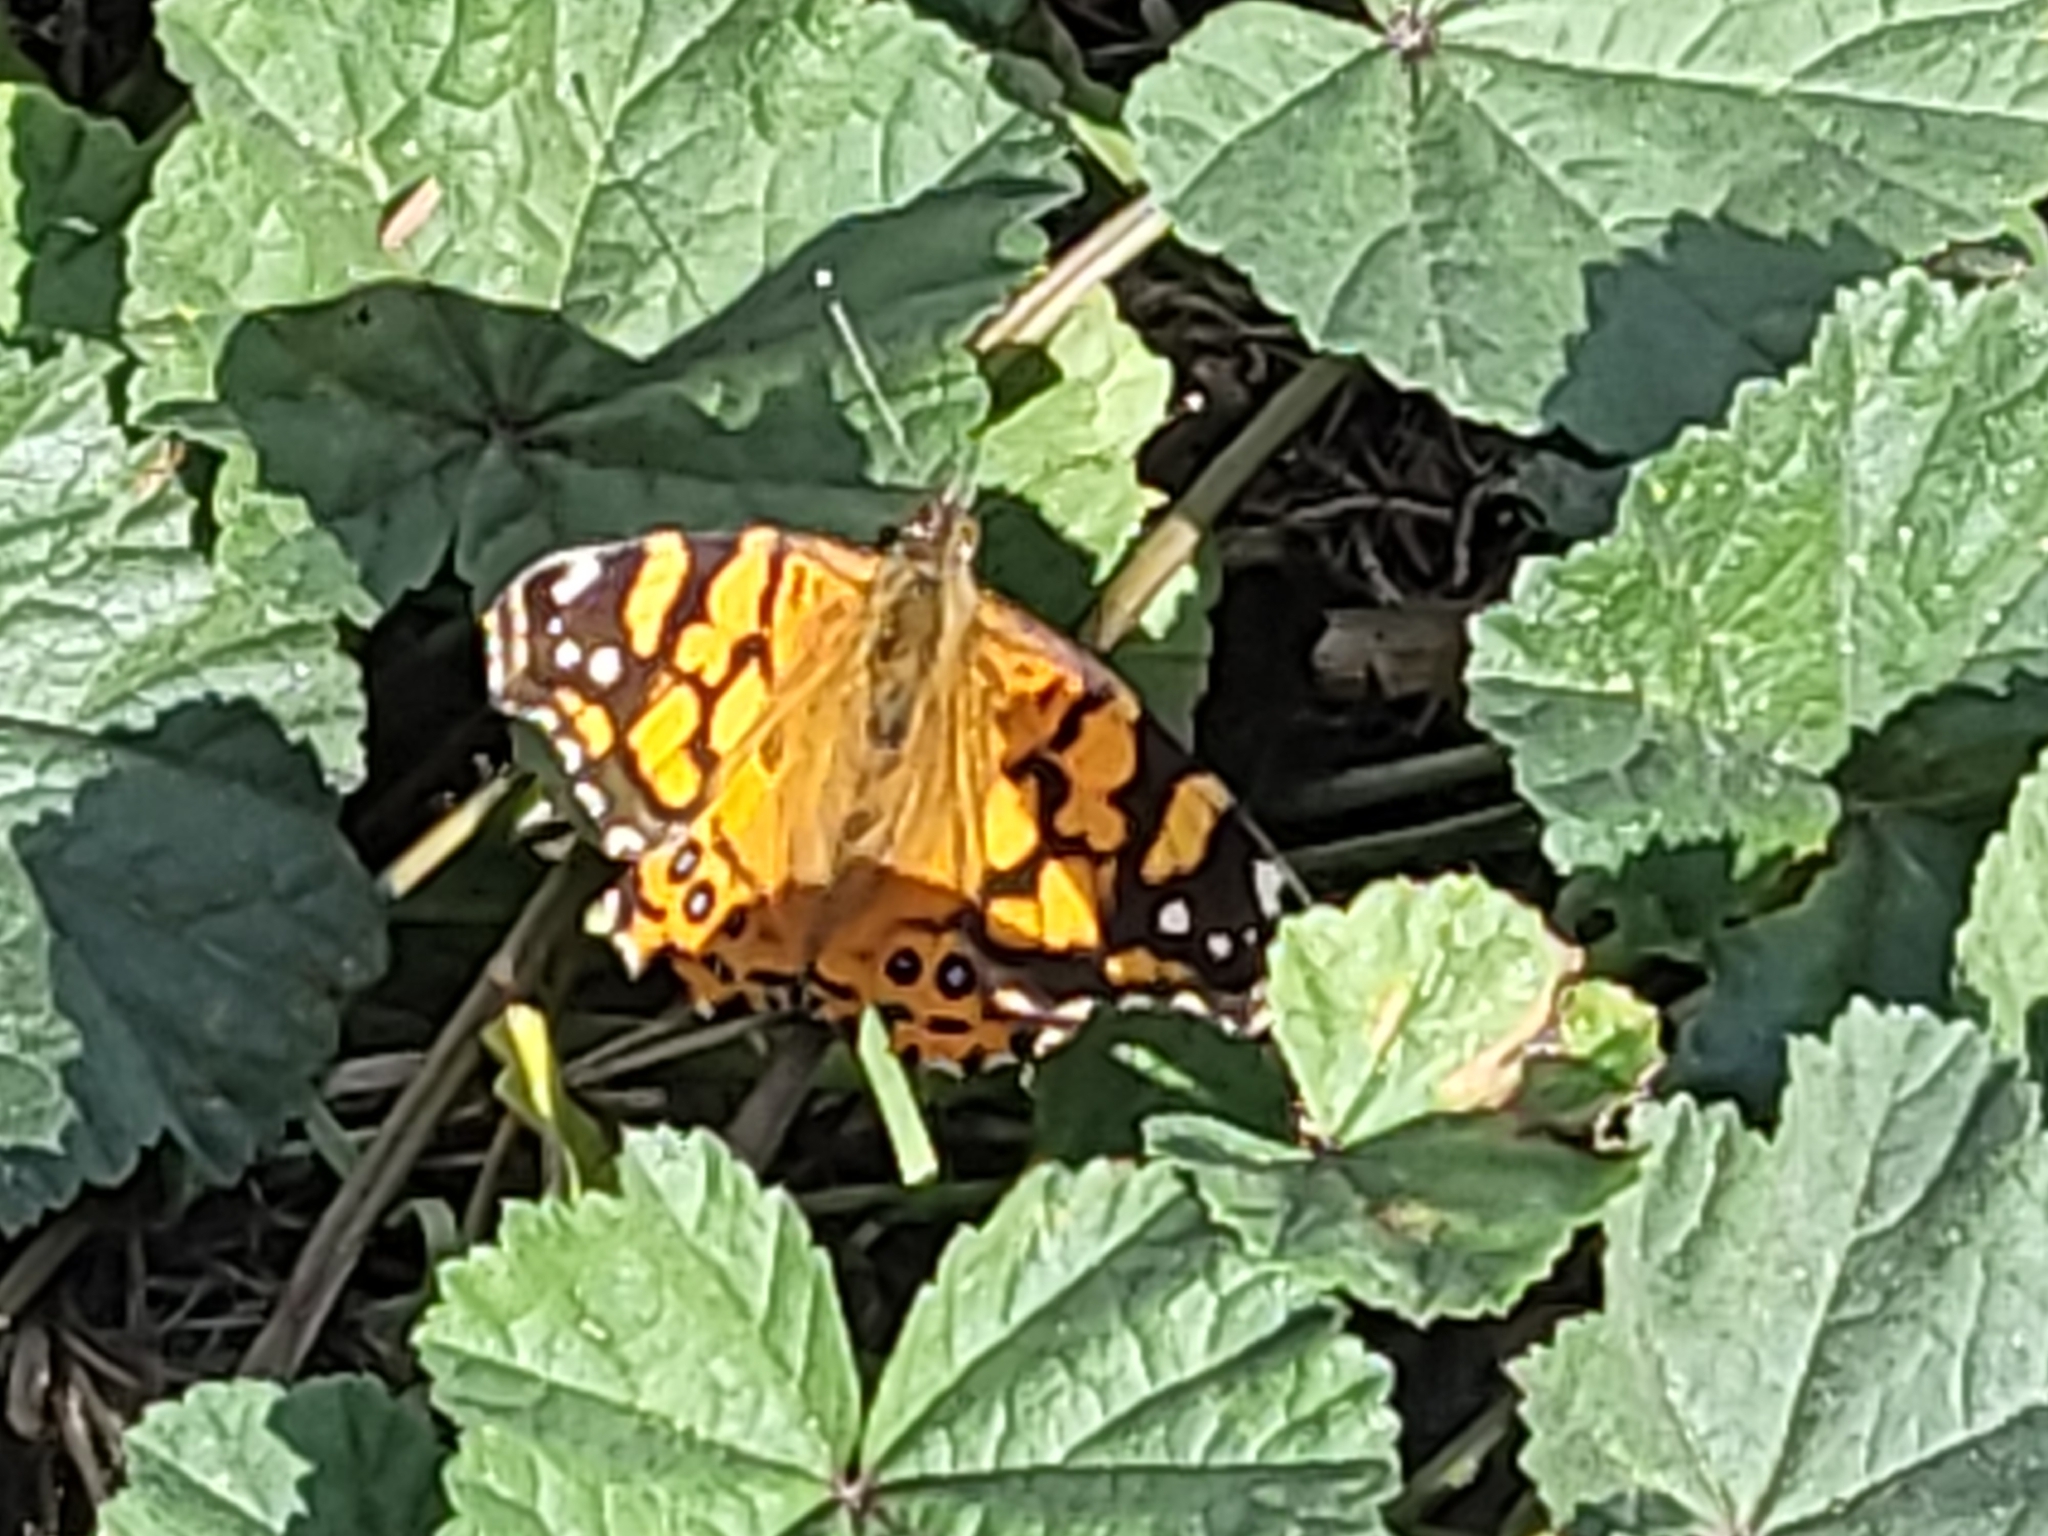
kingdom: Animalia
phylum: Arthropoda
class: Insecta
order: Lepidoptera
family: Nymphalidae
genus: Vanessa
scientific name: Vanessa annabella
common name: West coast lady
